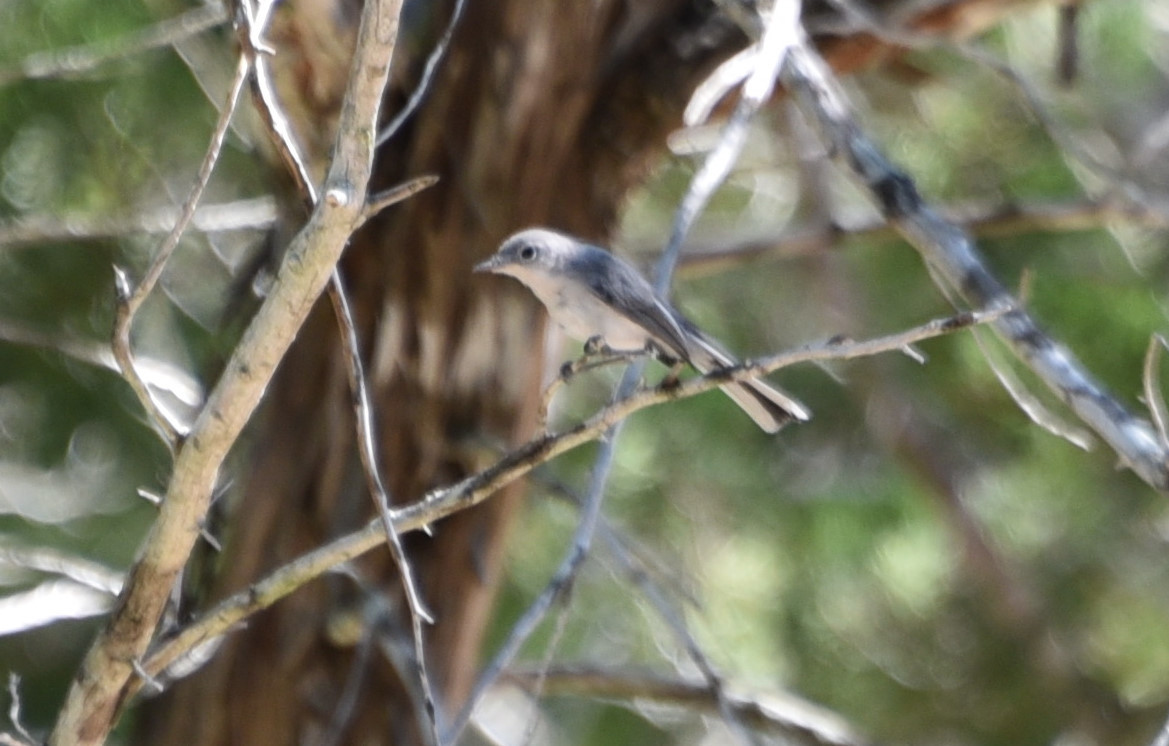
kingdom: Animalia
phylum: Chordata
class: Aves
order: Passeriformes
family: Polioptilidae
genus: Polioptila
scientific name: Polioptila caerulea
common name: Blue-gray gnatcatcher
